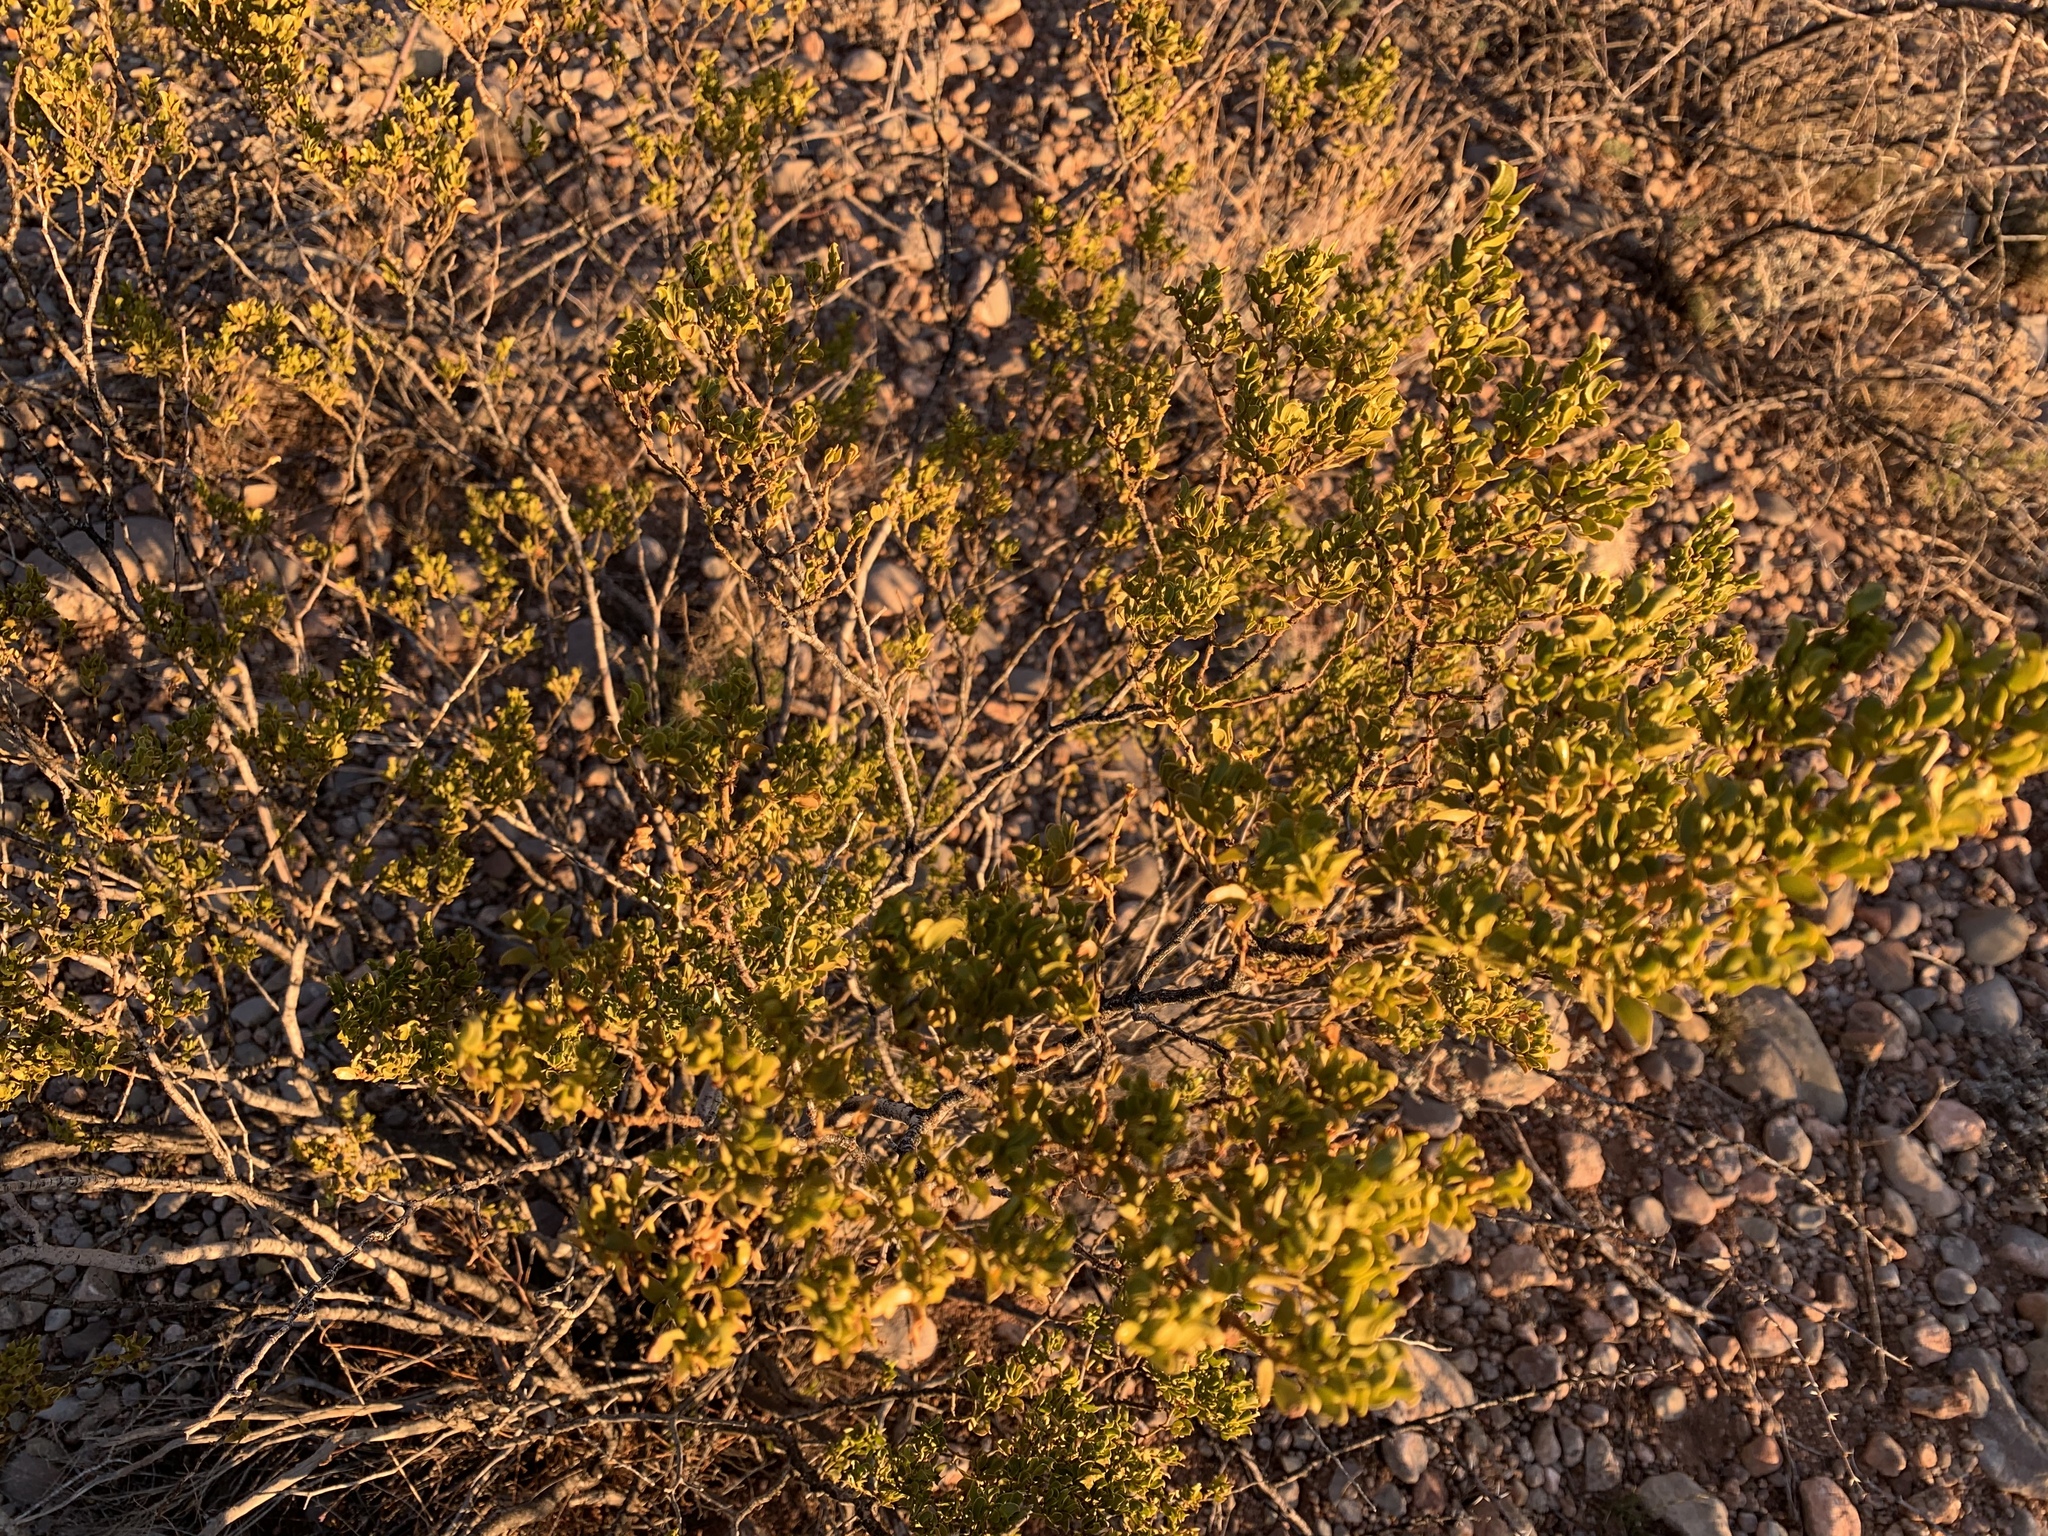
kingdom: Plantae
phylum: Tracheophyta
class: Magnoliopsida
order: Zygophyllales
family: Zygophyllaceae
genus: Larrea
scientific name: Larrea tridentata
